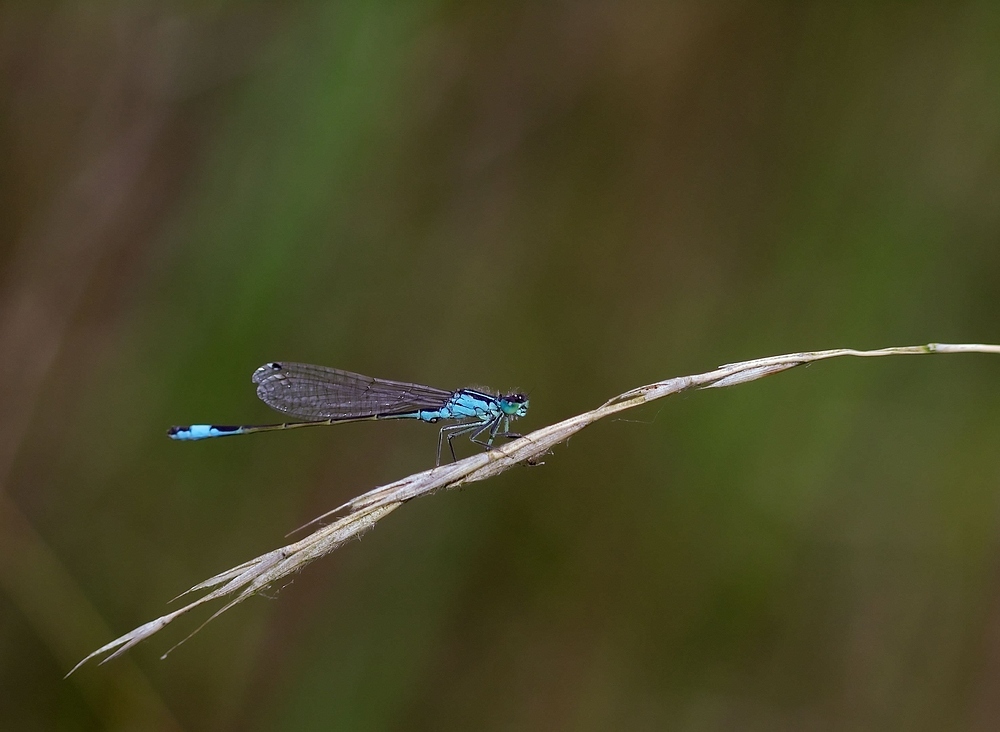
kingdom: Animalia
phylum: Arthropoda
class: Insecta
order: Odonata
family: Coenagrionidae
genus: Ischnura
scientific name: Ischnura elegans
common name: Blue-tailed damselfly
